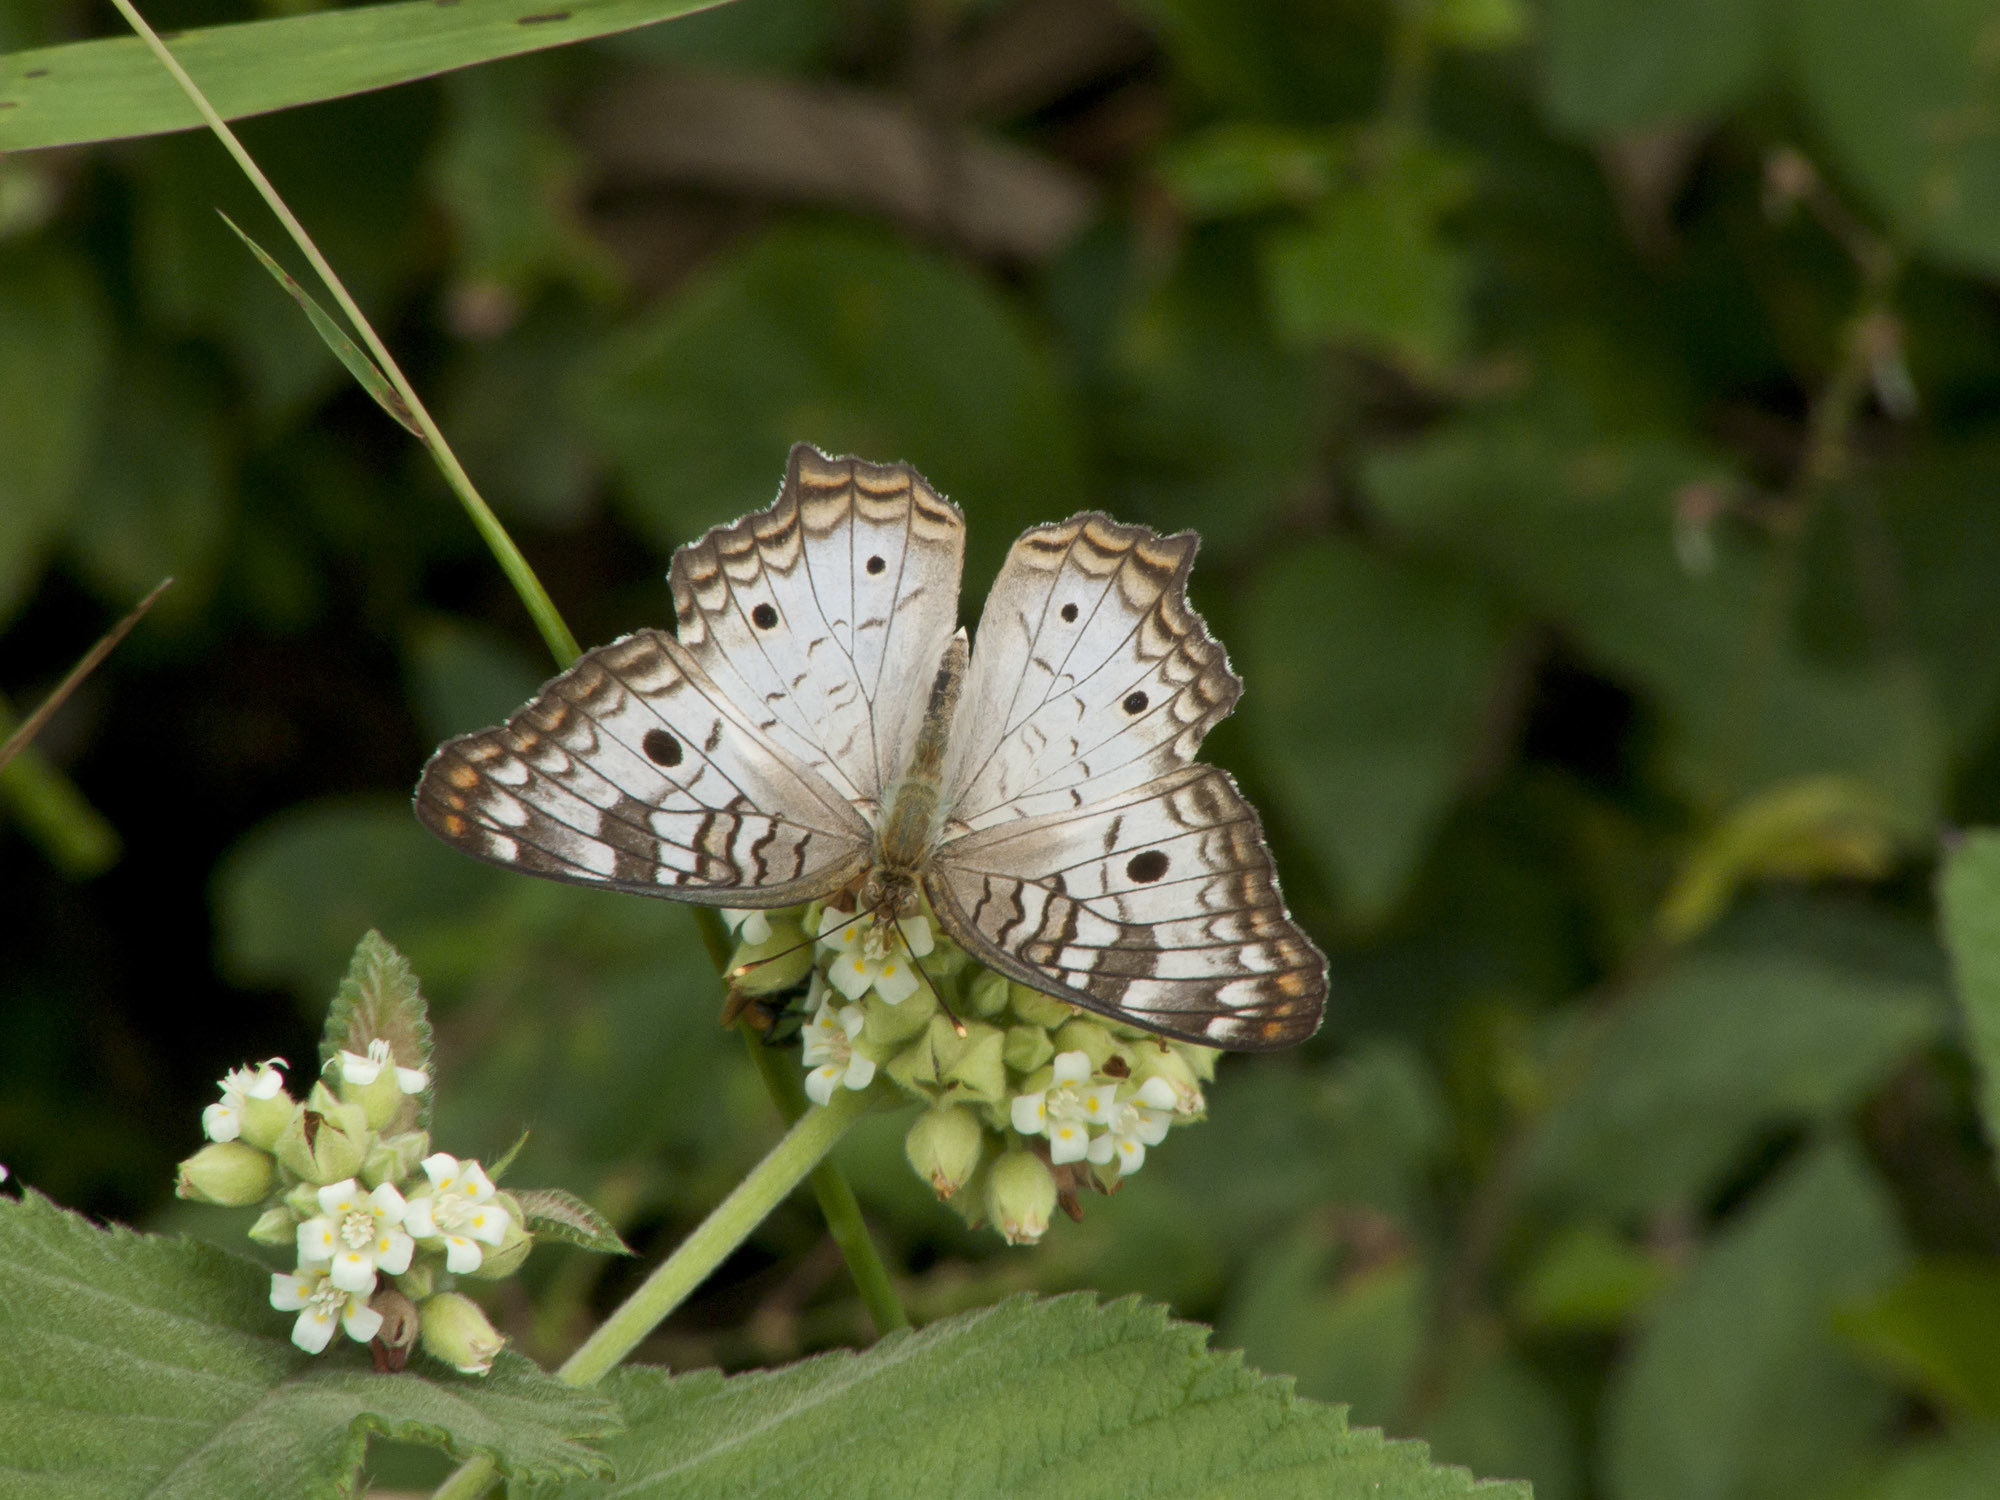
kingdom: Animalia
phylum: Arthropoda
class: Insecta
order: Lepidoptera
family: Nymphalidae
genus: Anartia
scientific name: Anartia jatrophae
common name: White peacock
